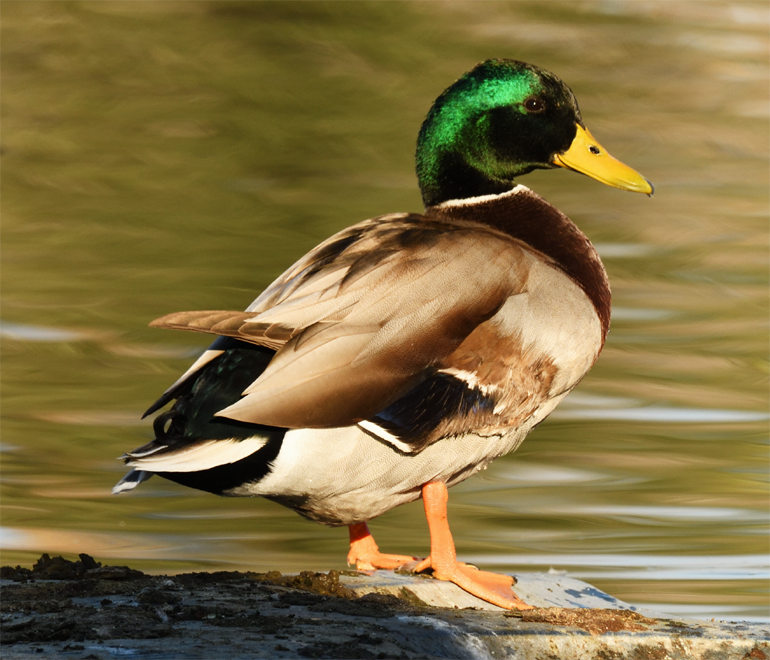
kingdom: Animalia
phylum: Chordata
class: Aves
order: Anseriformes
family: Anatidae
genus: Anas
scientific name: Anas platyrhynchos
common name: Mallard
